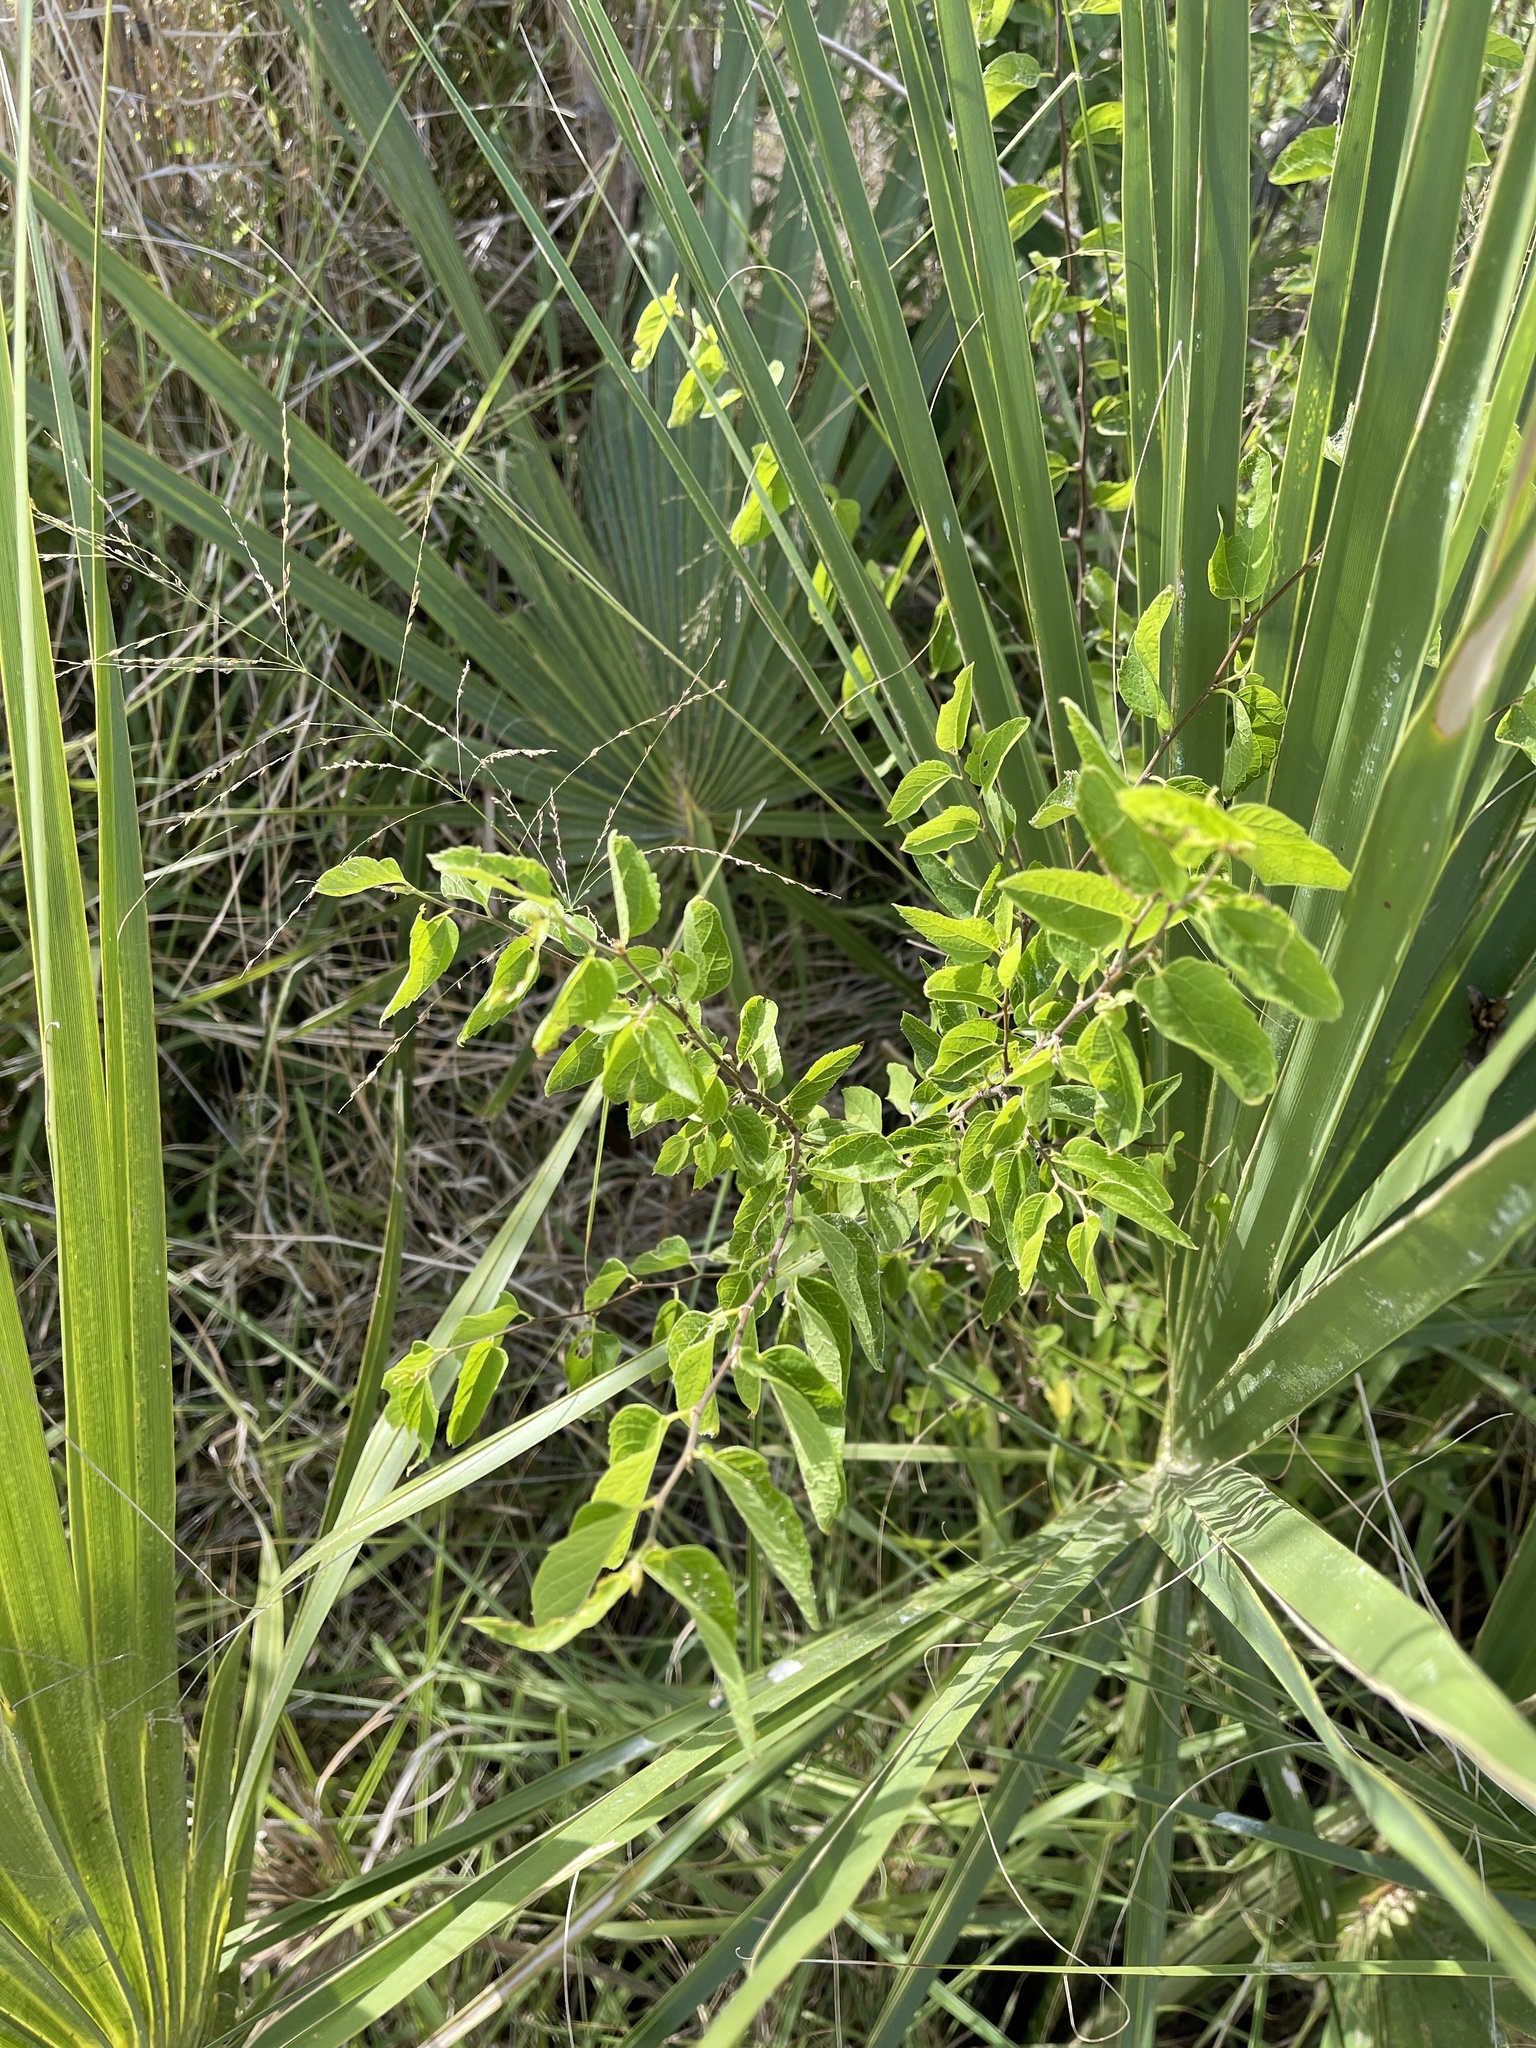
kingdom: Plantae
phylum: Tracheophyta
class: Magnoliopsida
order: Rosales
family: Cannabaceae
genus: Celtis
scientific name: Celtis reticulata
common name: Netleaf hackberry
